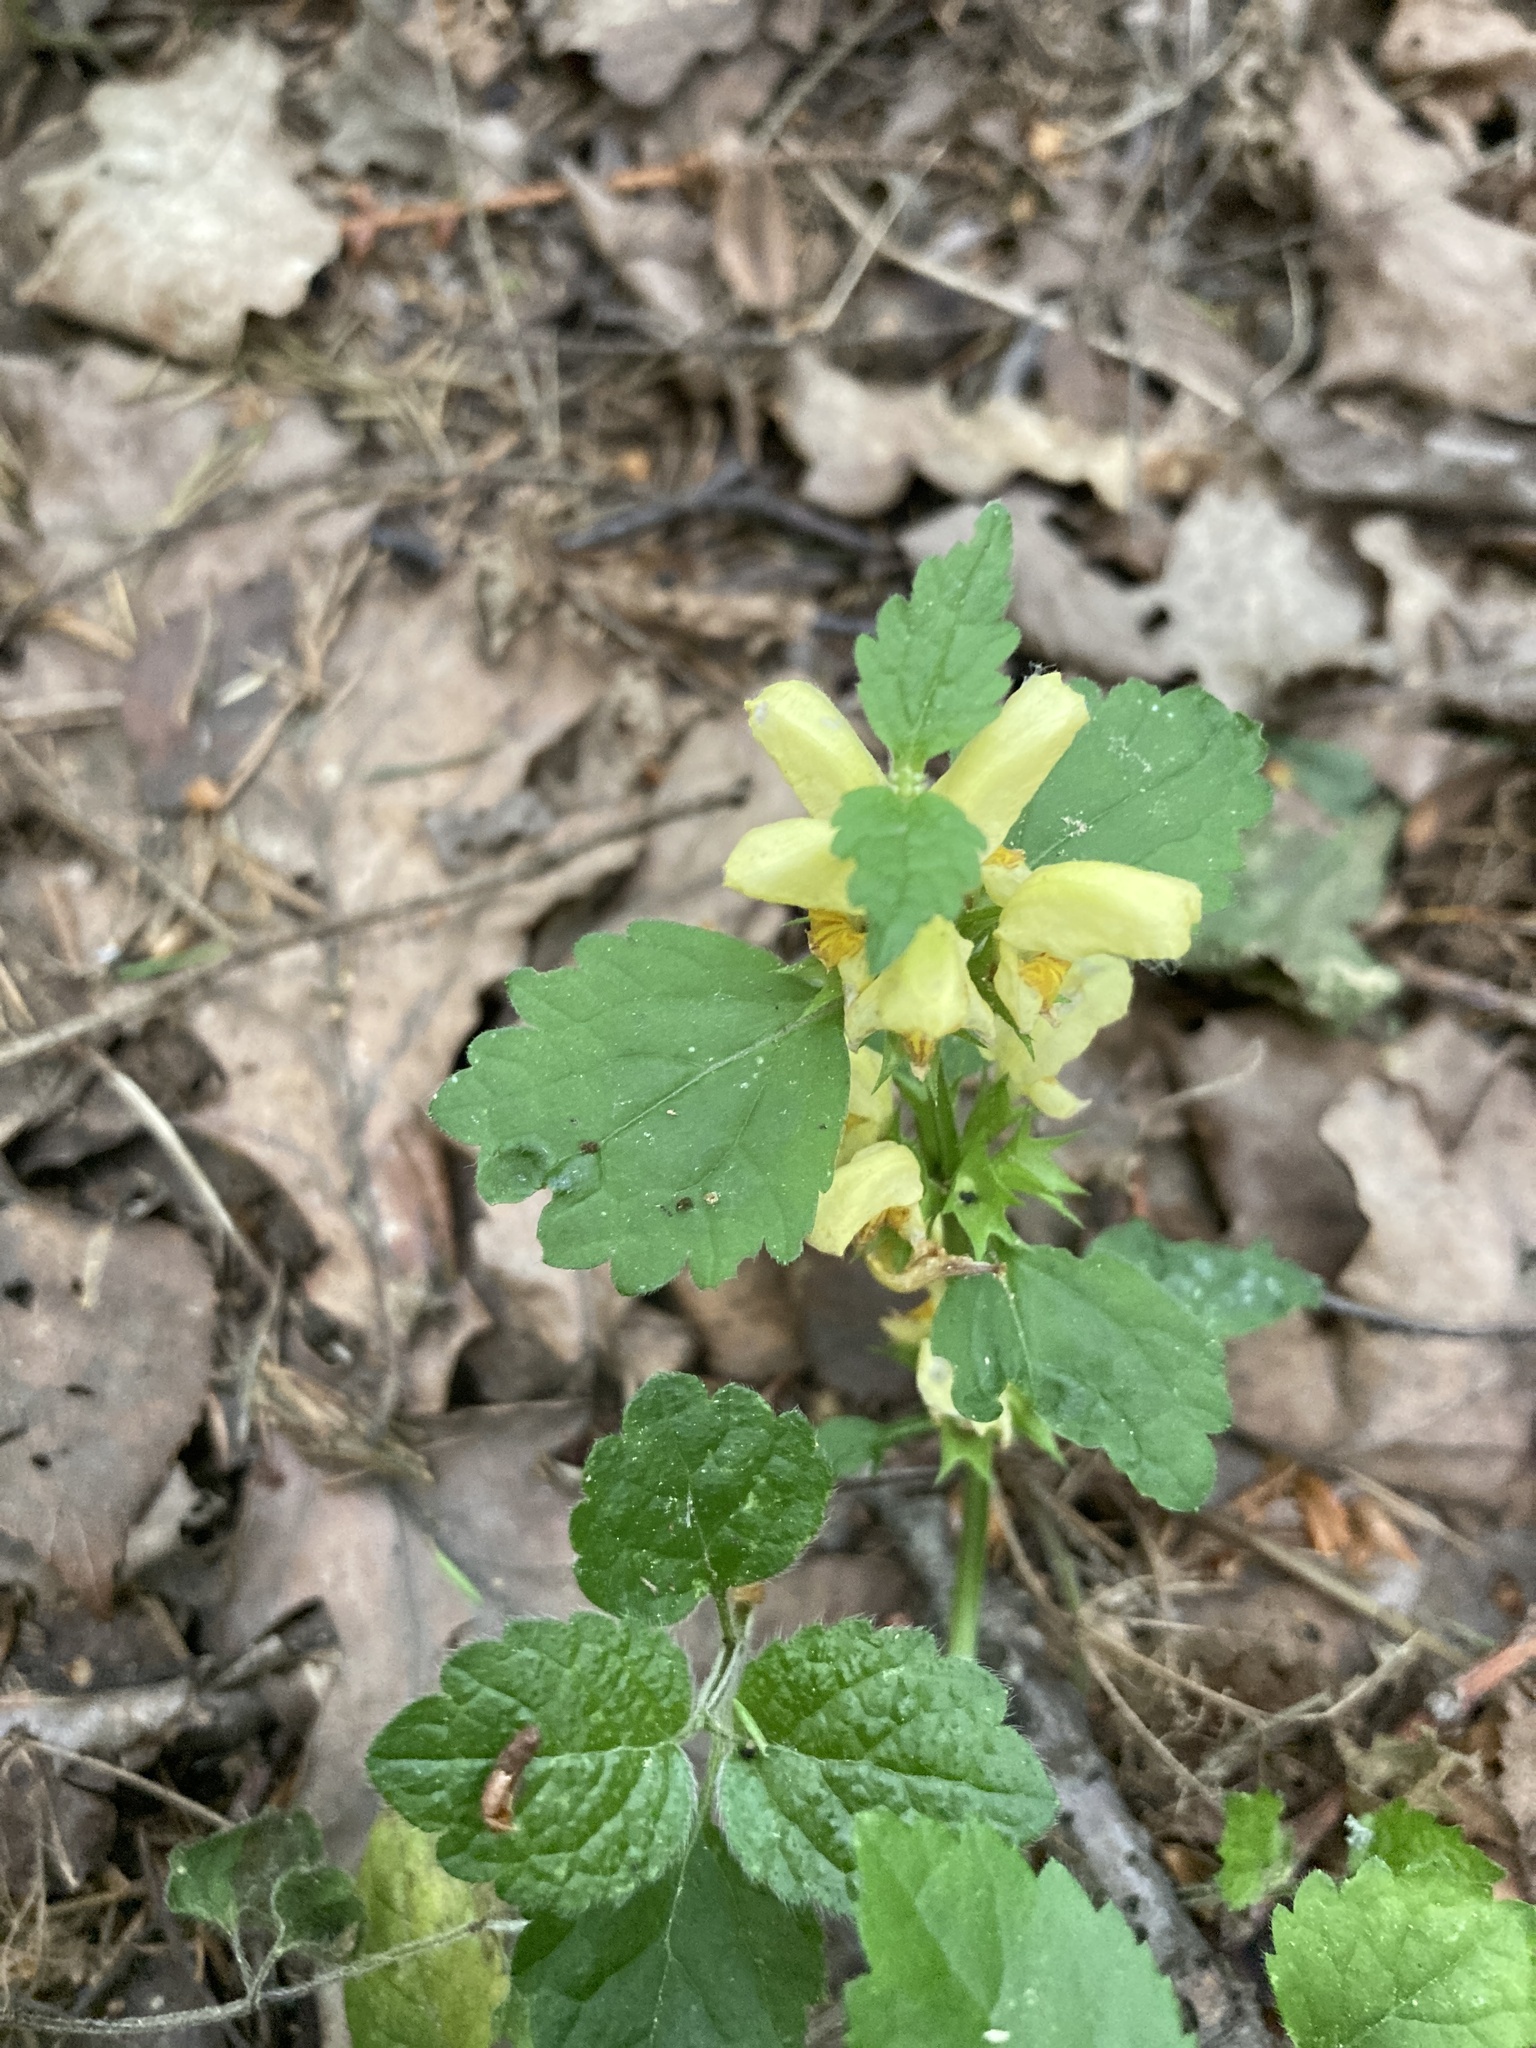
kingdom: Plantae
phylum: Tracheophyta
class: Magnoliopsida
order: Lamiales
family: Lamiaceae
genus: Lamium
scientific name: Lamium galeobdolon
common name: Yellow archangel
